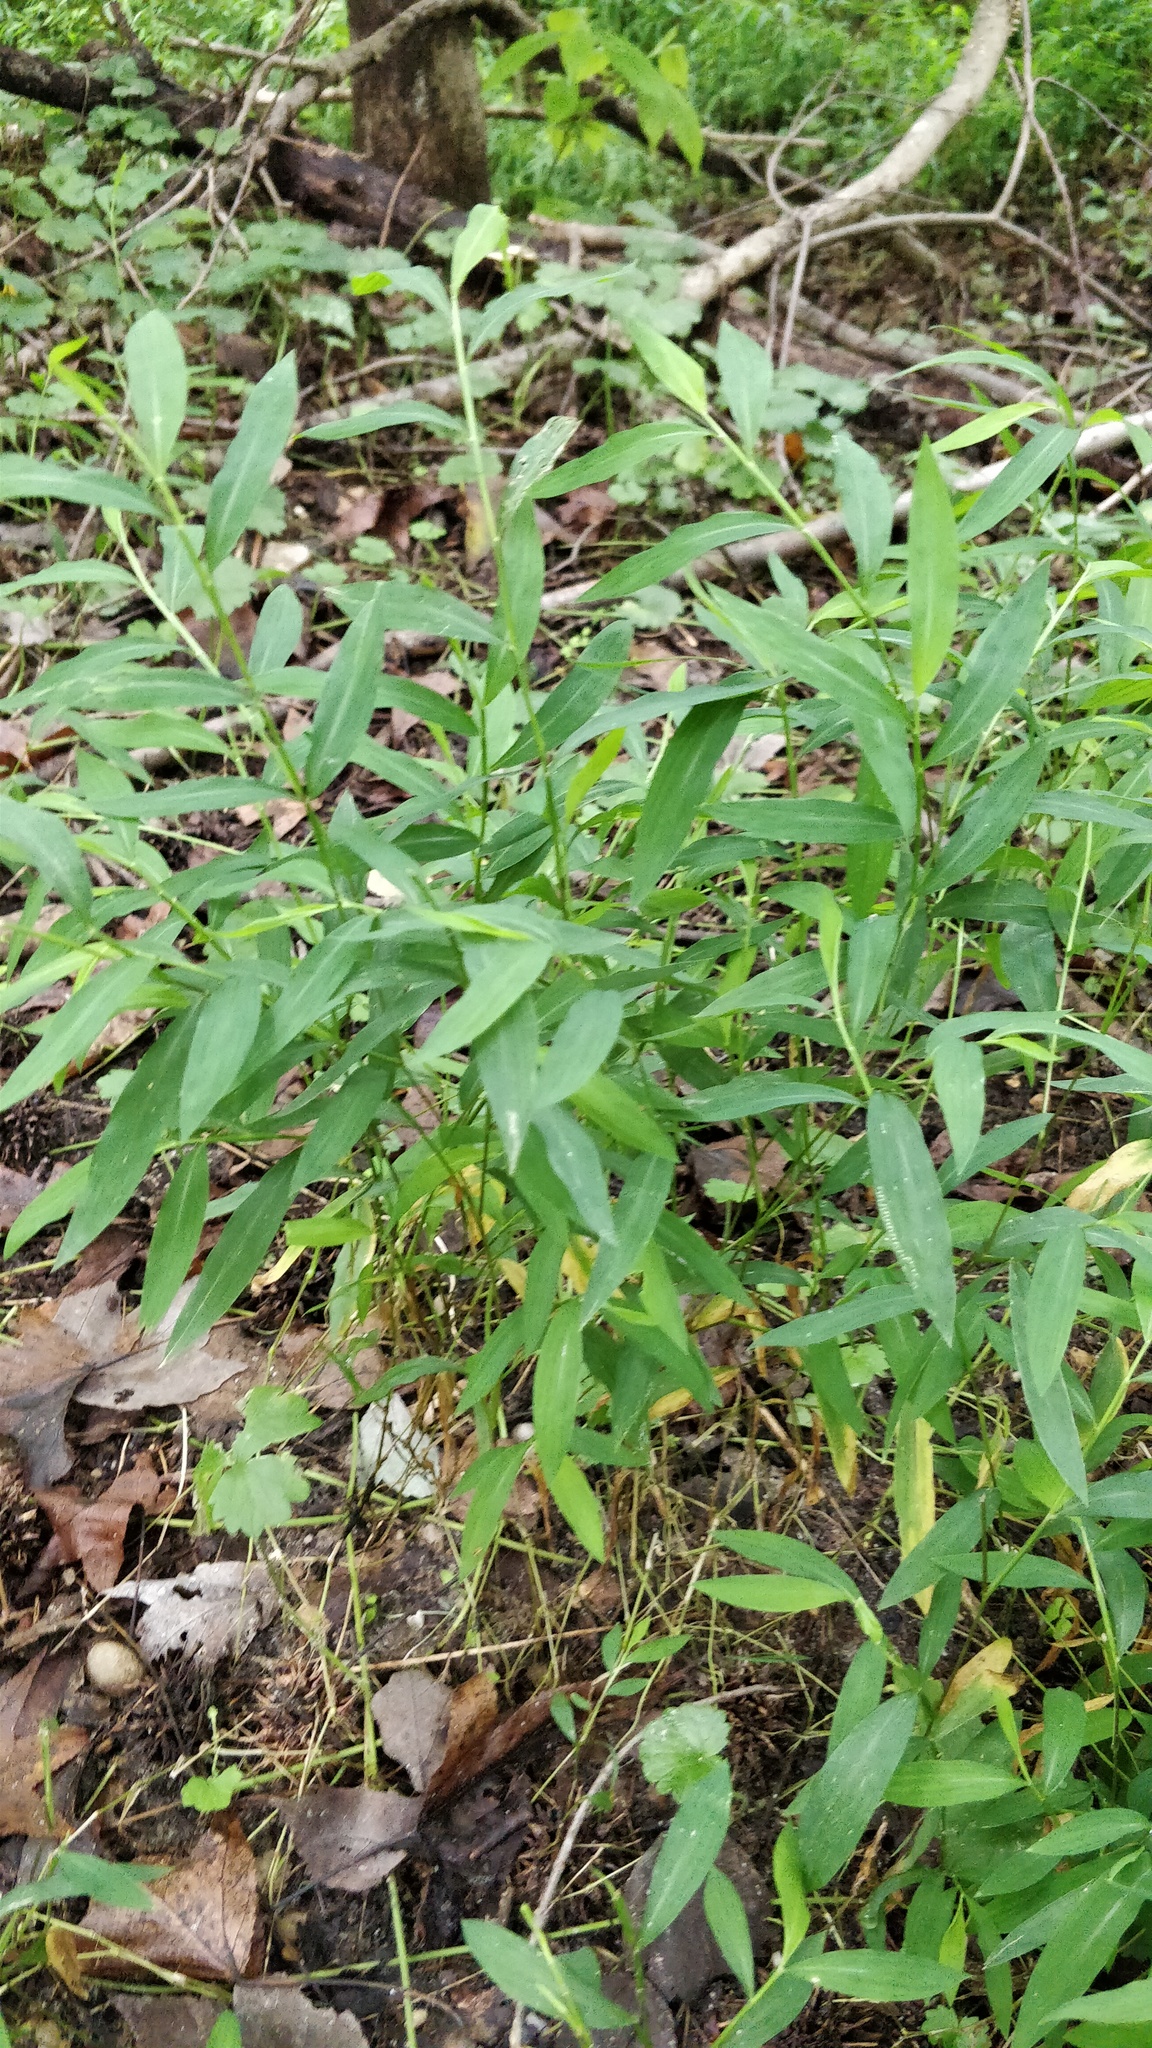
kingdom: Plantae
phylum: Tracheophyta
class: Liliopsida
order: Poales
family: Poaceae
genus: Microstegium
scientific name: Microstegium vimineum
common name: Japanese stiltgrass
